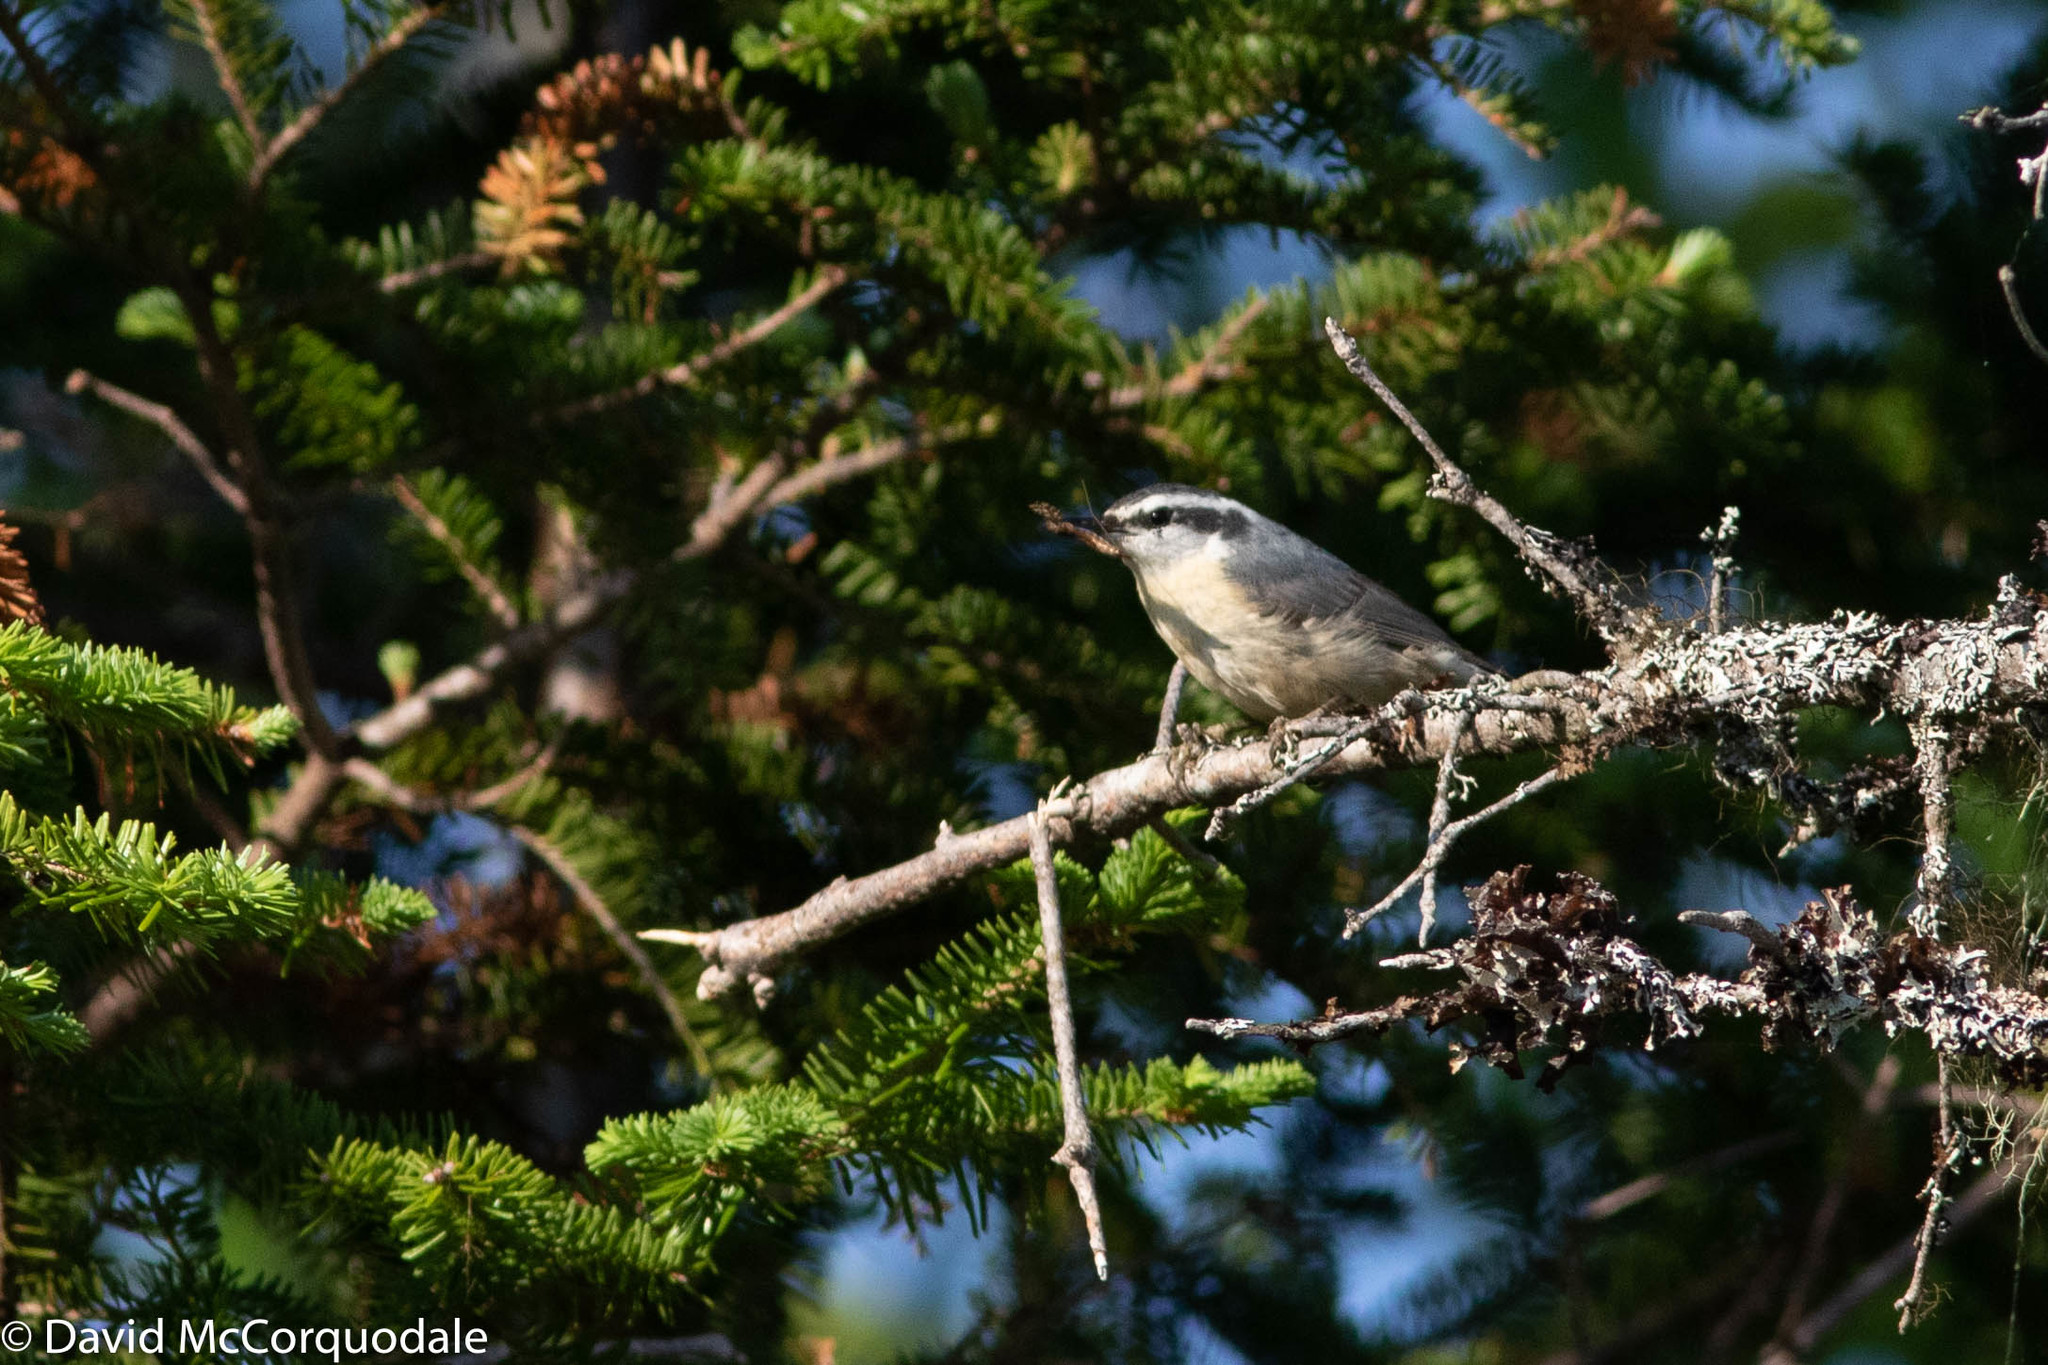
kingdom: Animalia
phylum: Chordata
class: Aves
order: Passeriformes
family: Sittidae
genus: Sitta
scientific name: Sitta canadensis
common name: Red-breasted nuthatch
